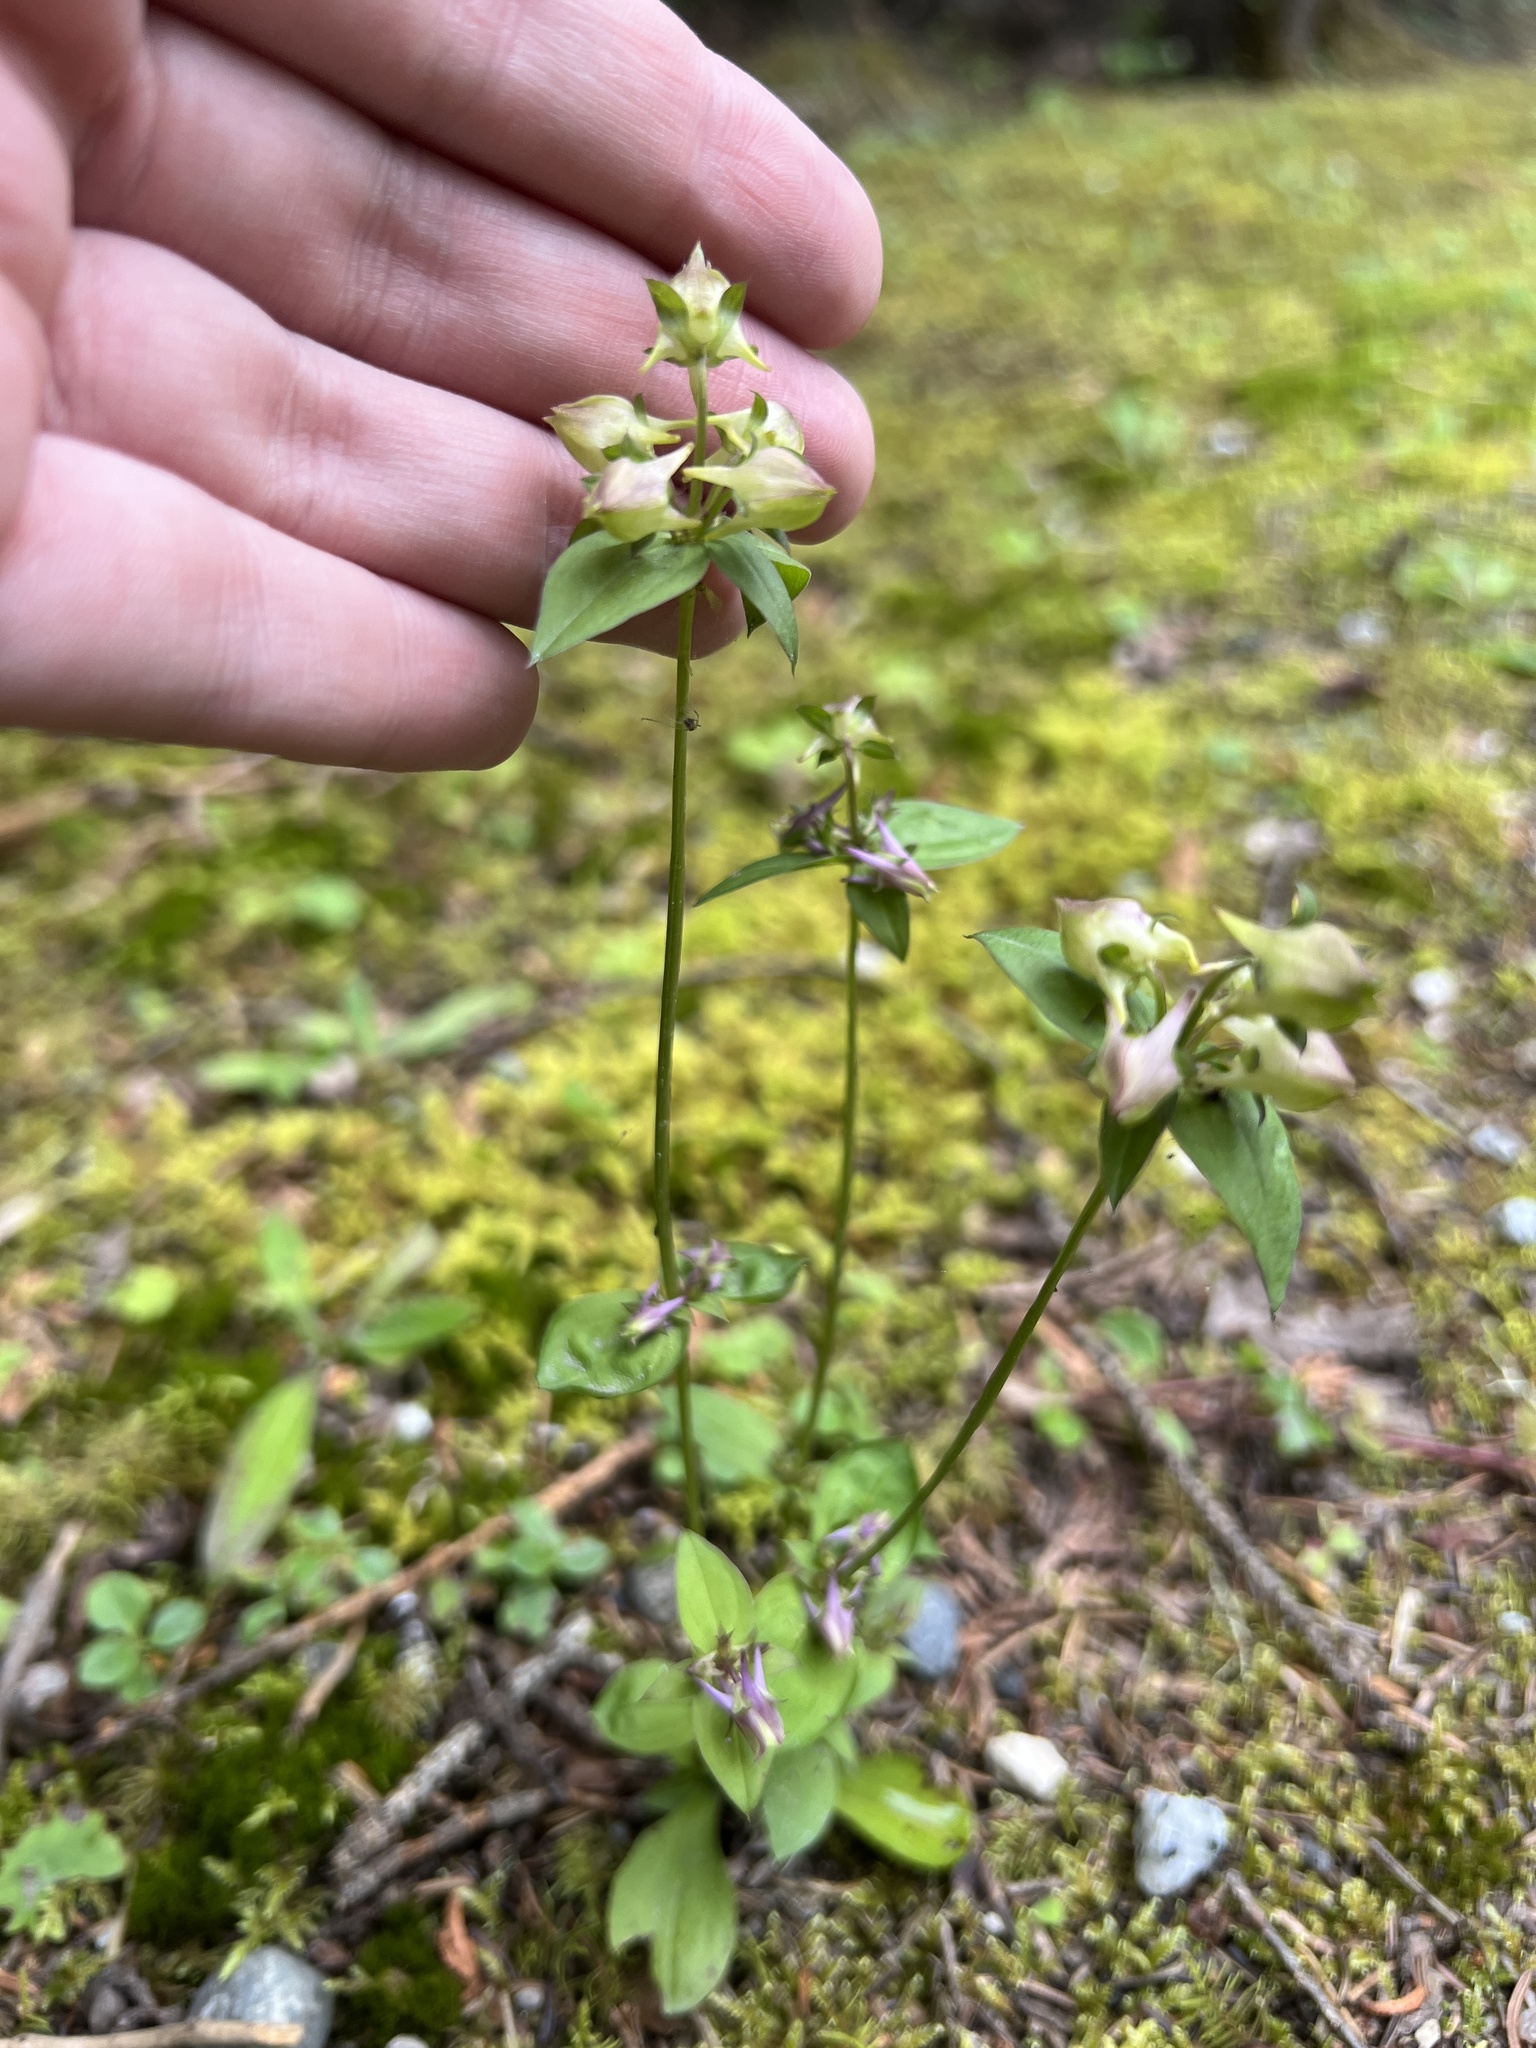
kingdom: Plantae
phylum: Tracheophyta
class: Magnoliopsida
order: Gentianales
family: Gentianaceae
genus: Halenia
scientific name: Halenia deflexa
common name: American spurred gentian
